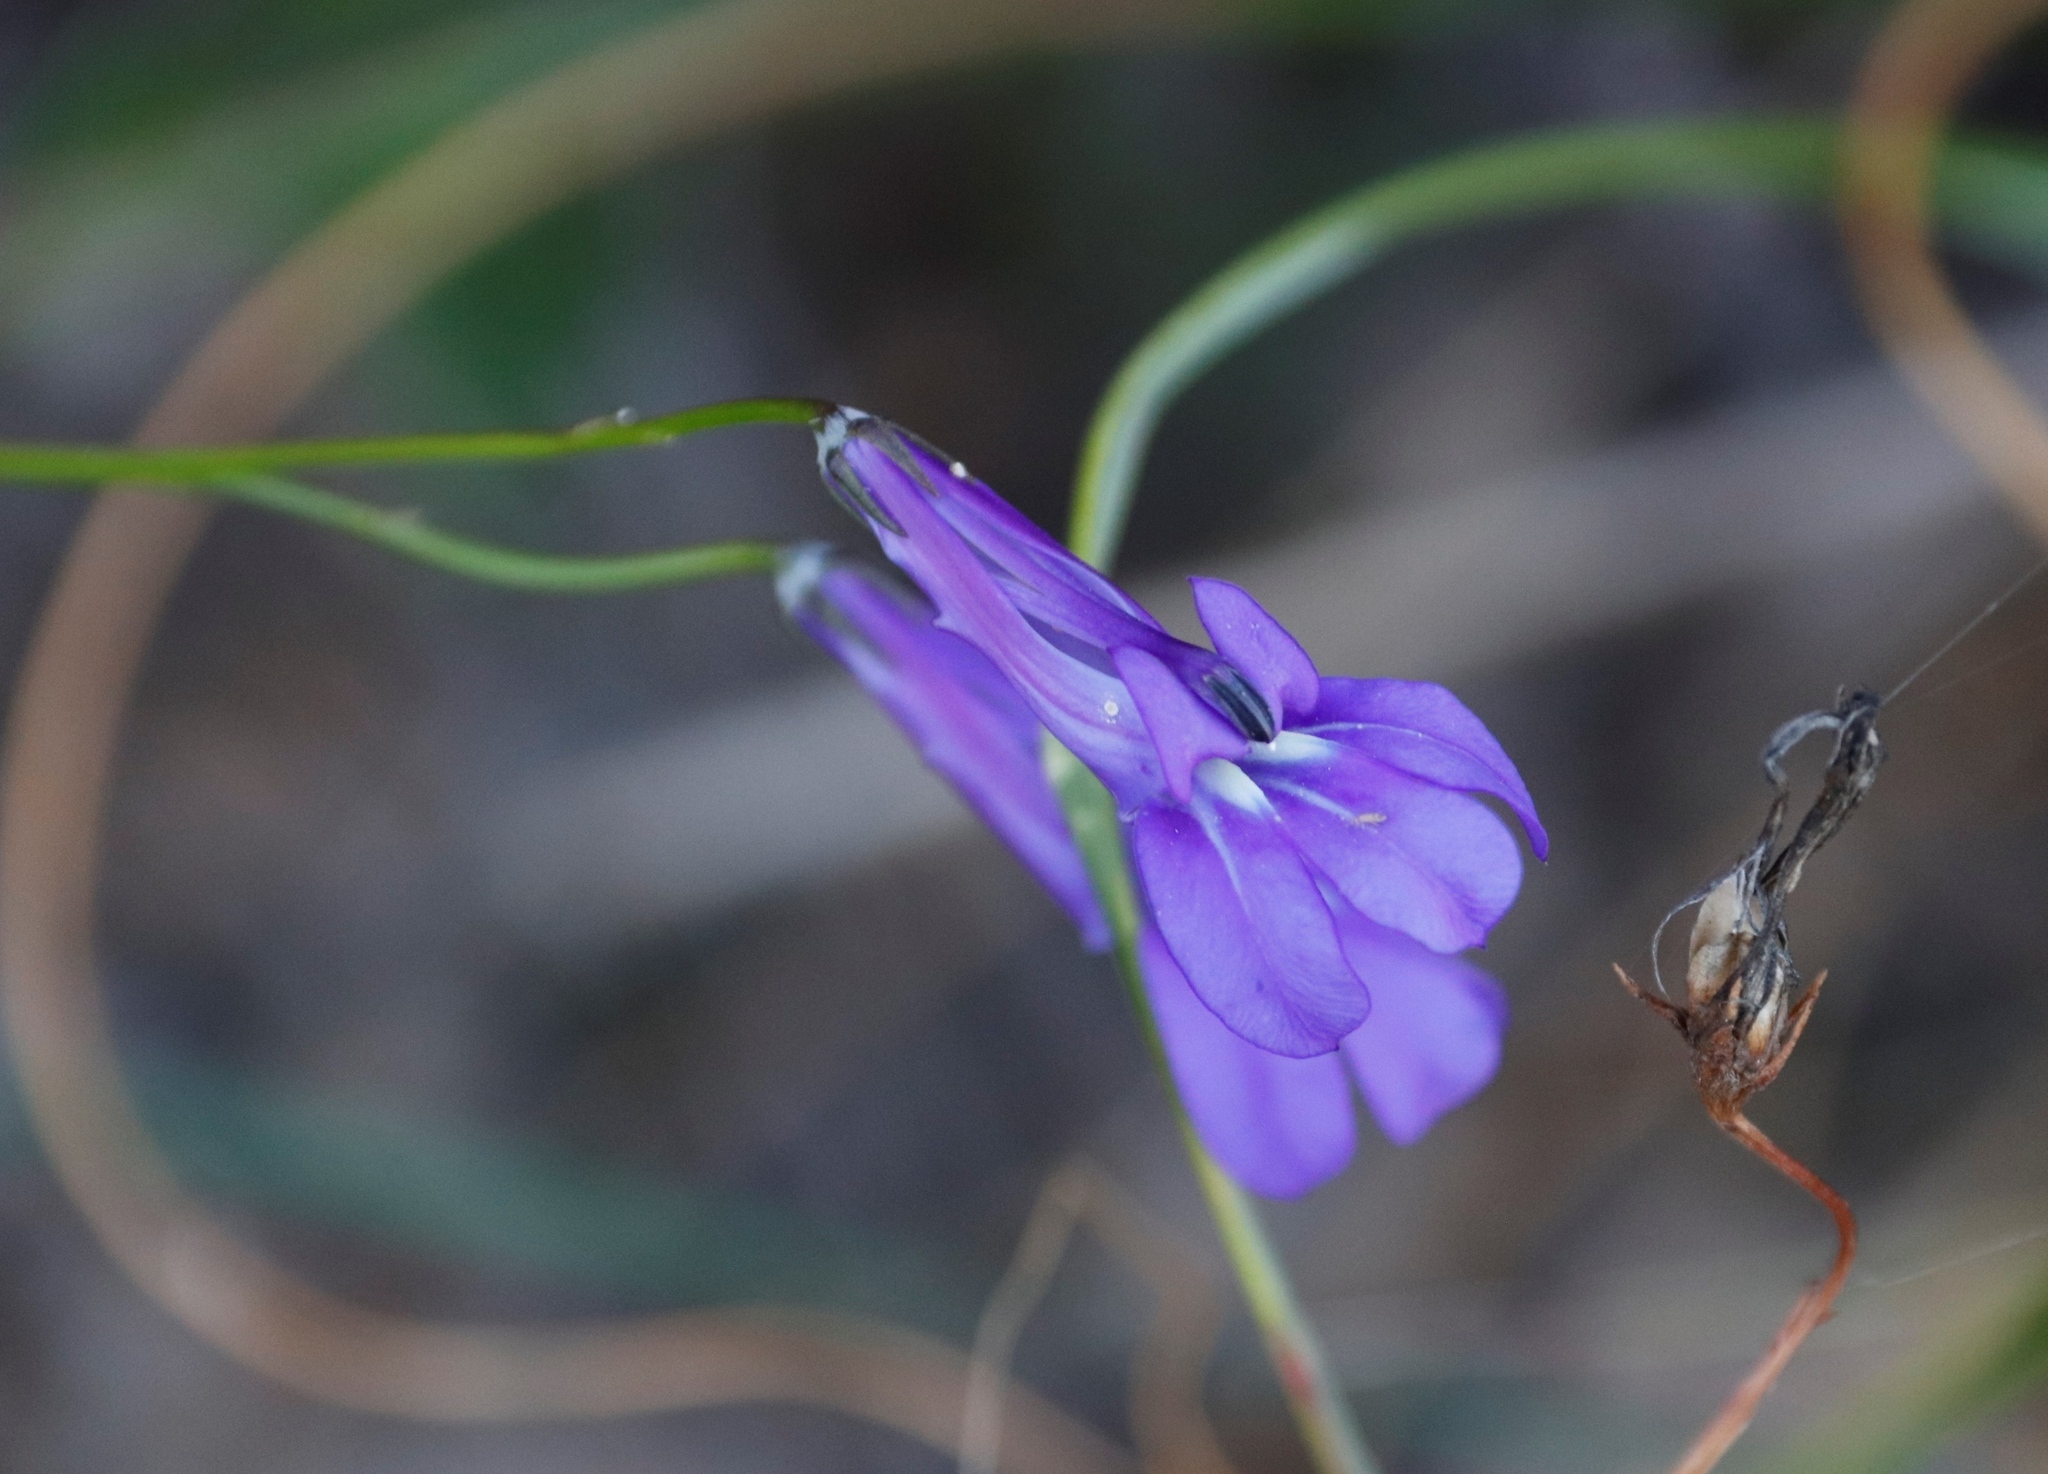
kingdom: Plantae
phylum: Tracheophyta
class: Magnoliopsida
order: Asterales
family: Campanulaceae
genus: Lobelia
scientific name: Lobelia coronopifolia
